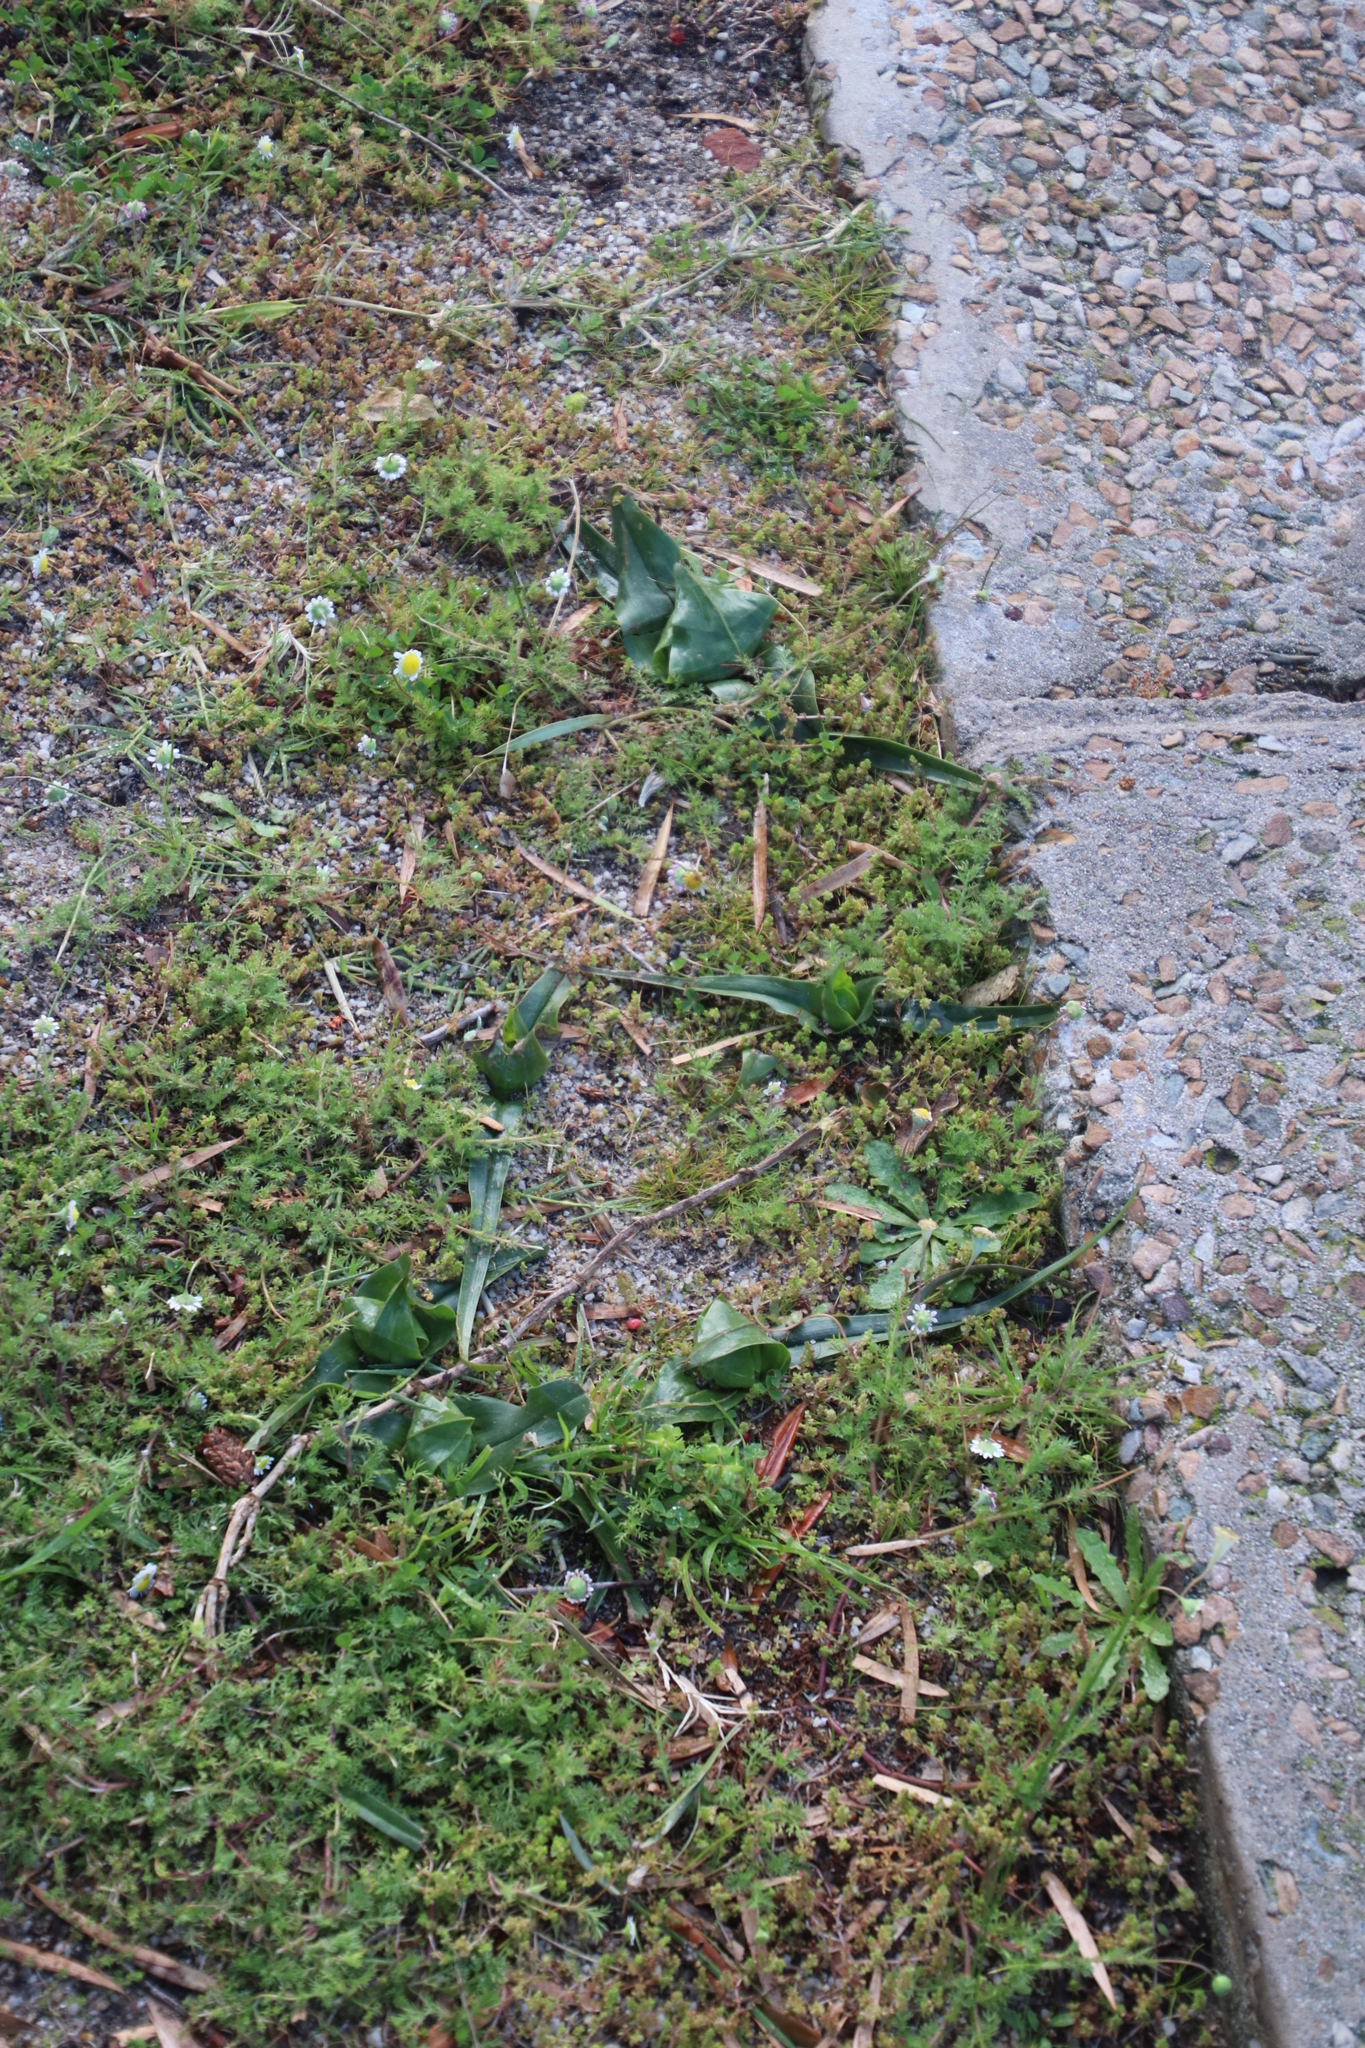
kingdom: Plantae
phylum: Tracheophyta
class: Liliopsida
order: Liliales
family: Colchicaceae
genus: Colchicum
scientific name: Colchicum eucomoides
